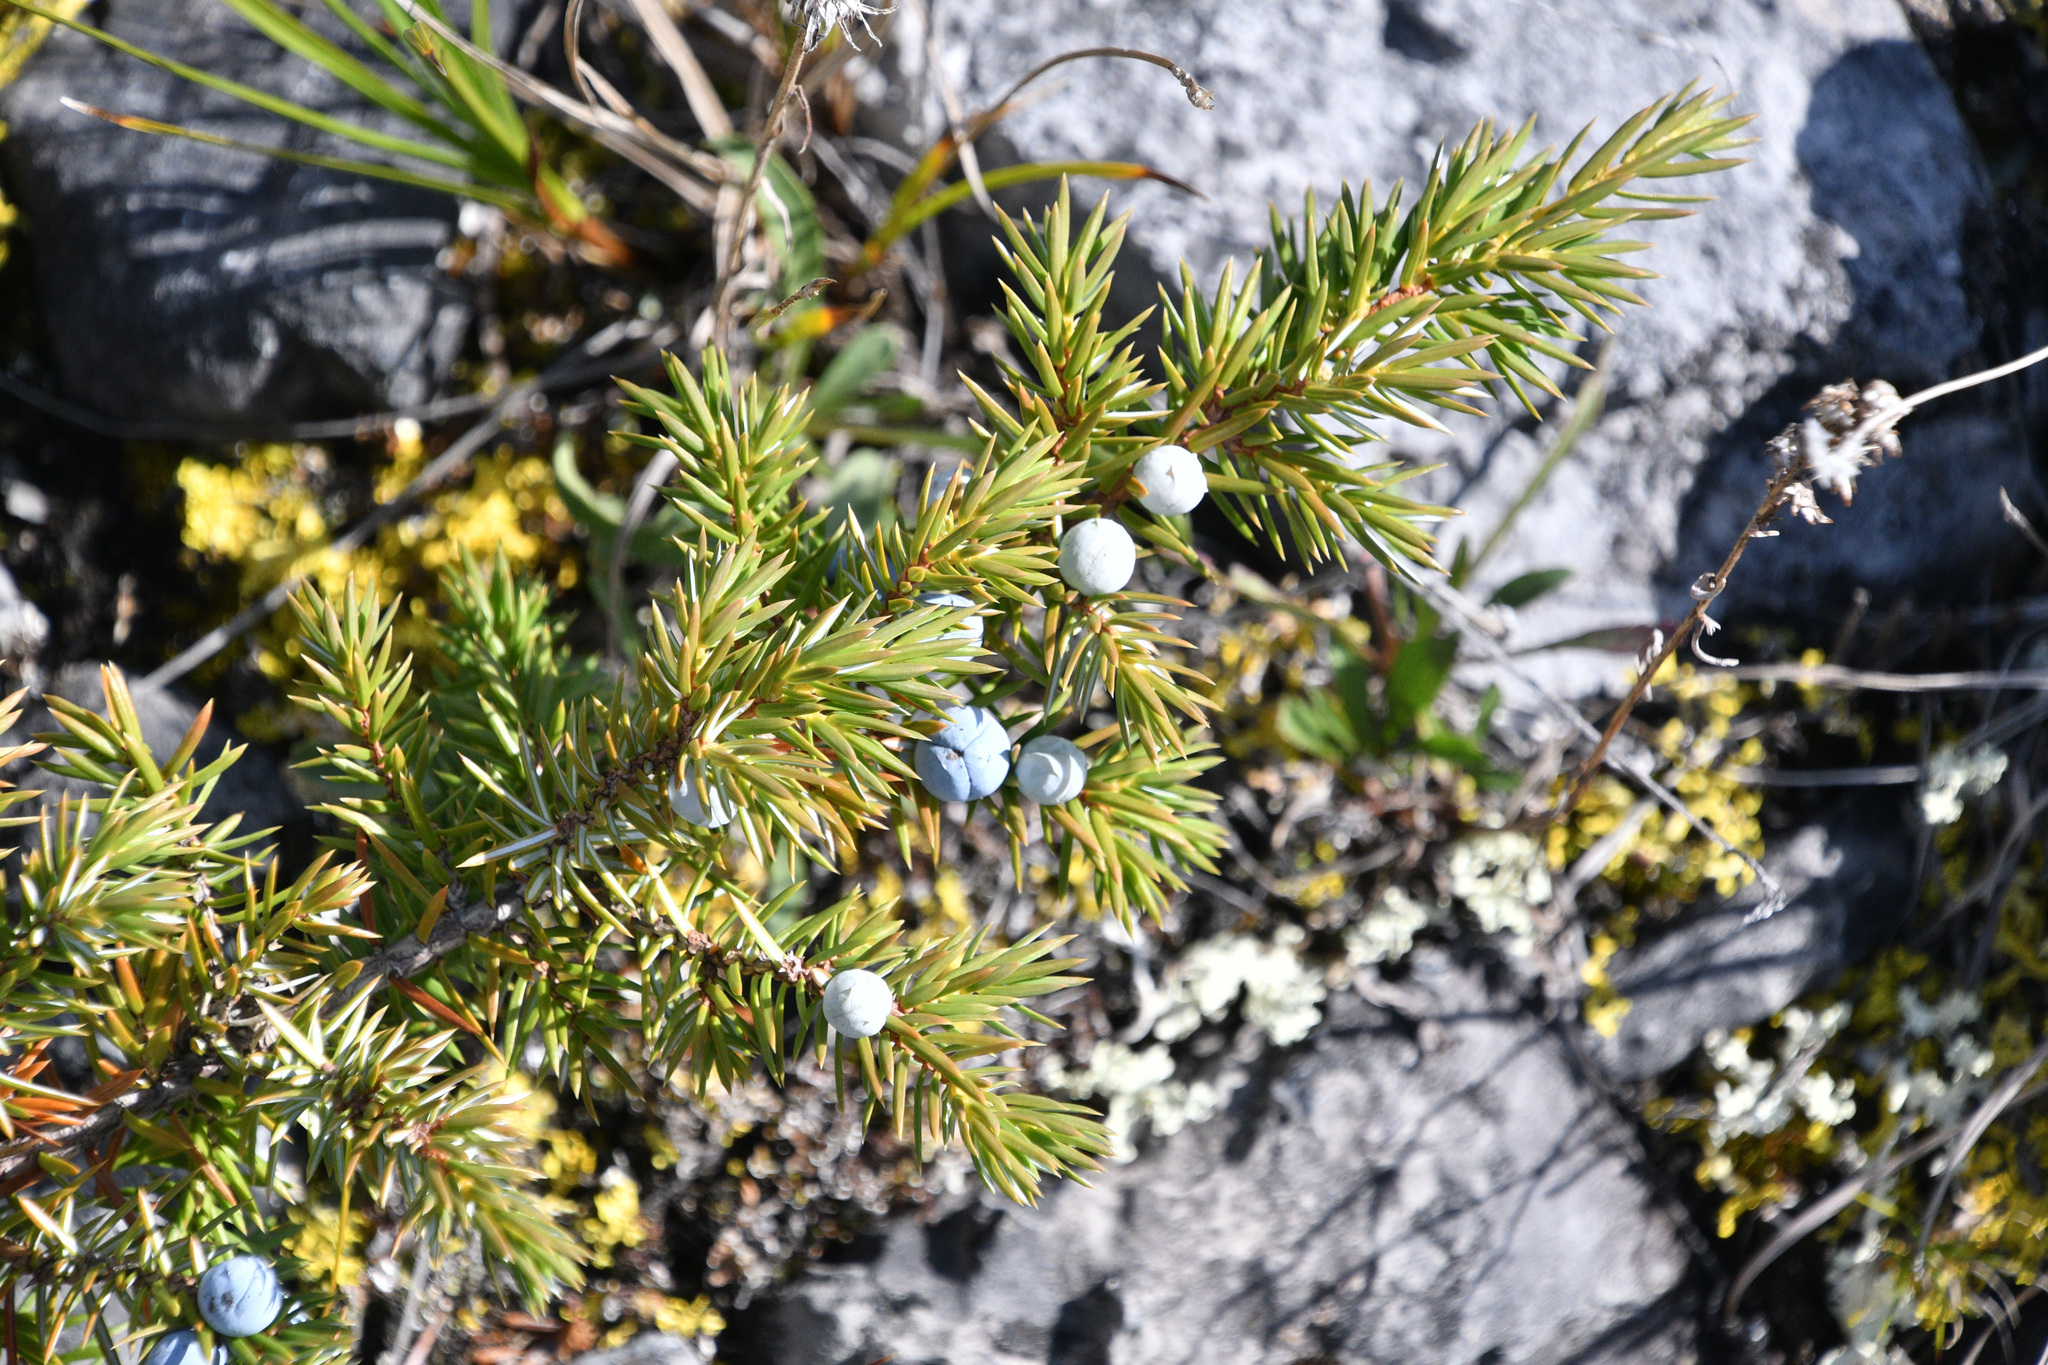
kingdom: Plantae
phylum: Tracheophyta
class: Pinopsida
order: Pinales
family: Cupressaceae
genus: Juniperus
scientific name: Juniperus communis
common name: Common juniper
